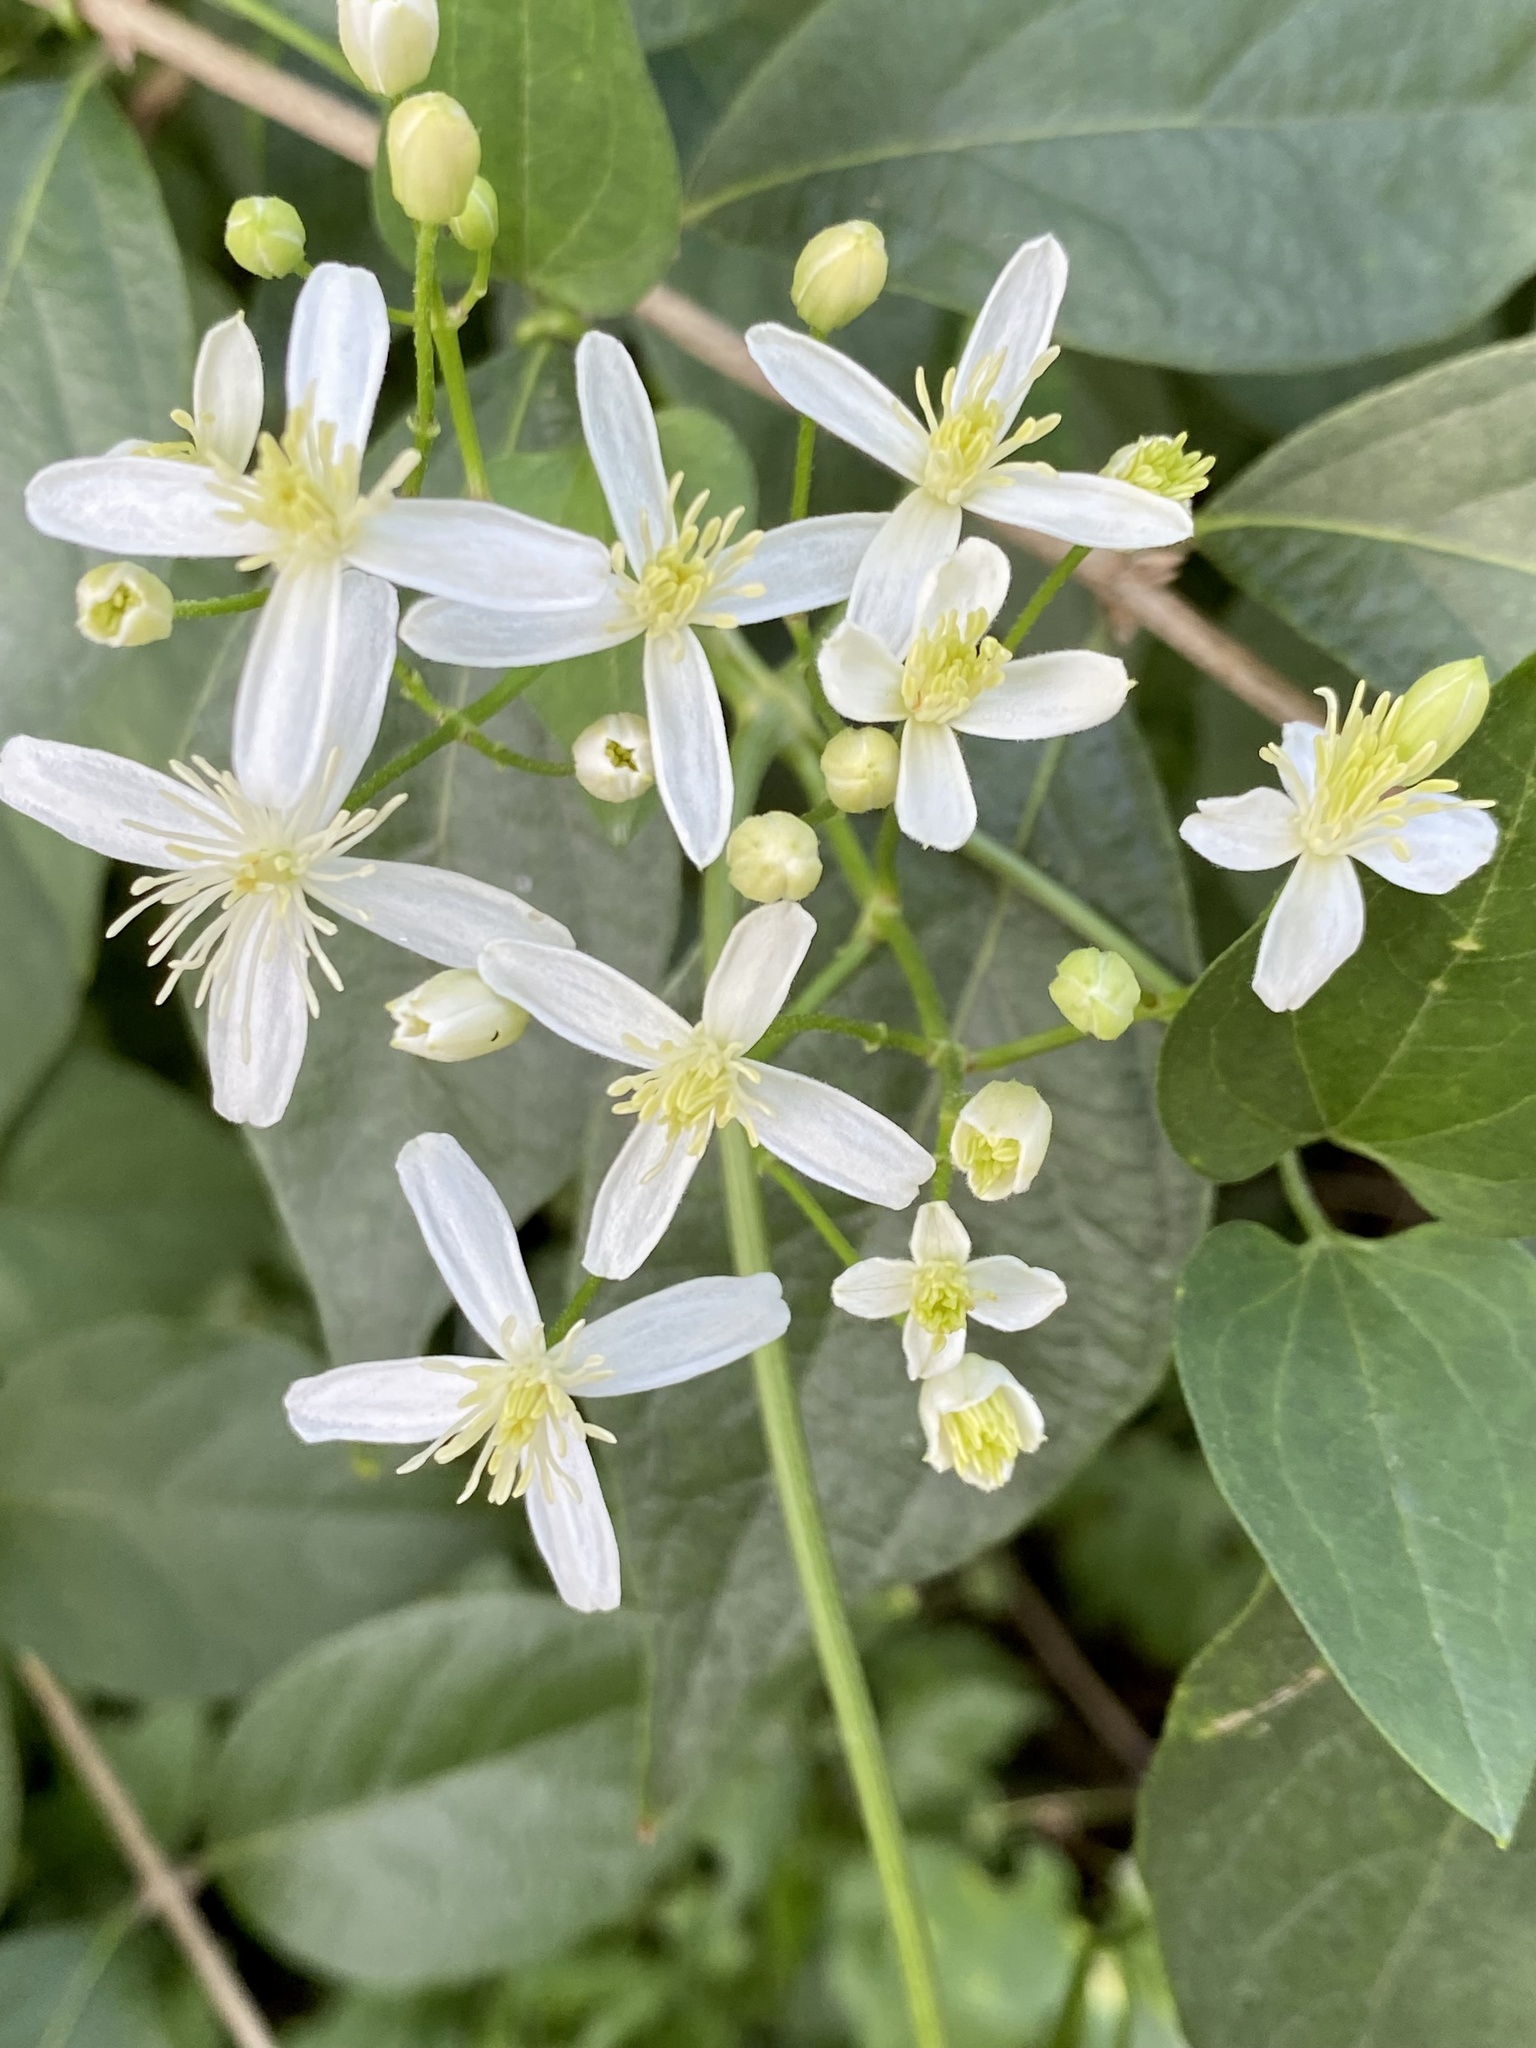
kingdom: Plantae
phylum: Tracheophyta
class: Magnoliopsida
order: Ranunculales
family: Ranunculaceae
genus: Clematis
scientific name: Clematis terniflora
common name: Sweet autumn clematis
